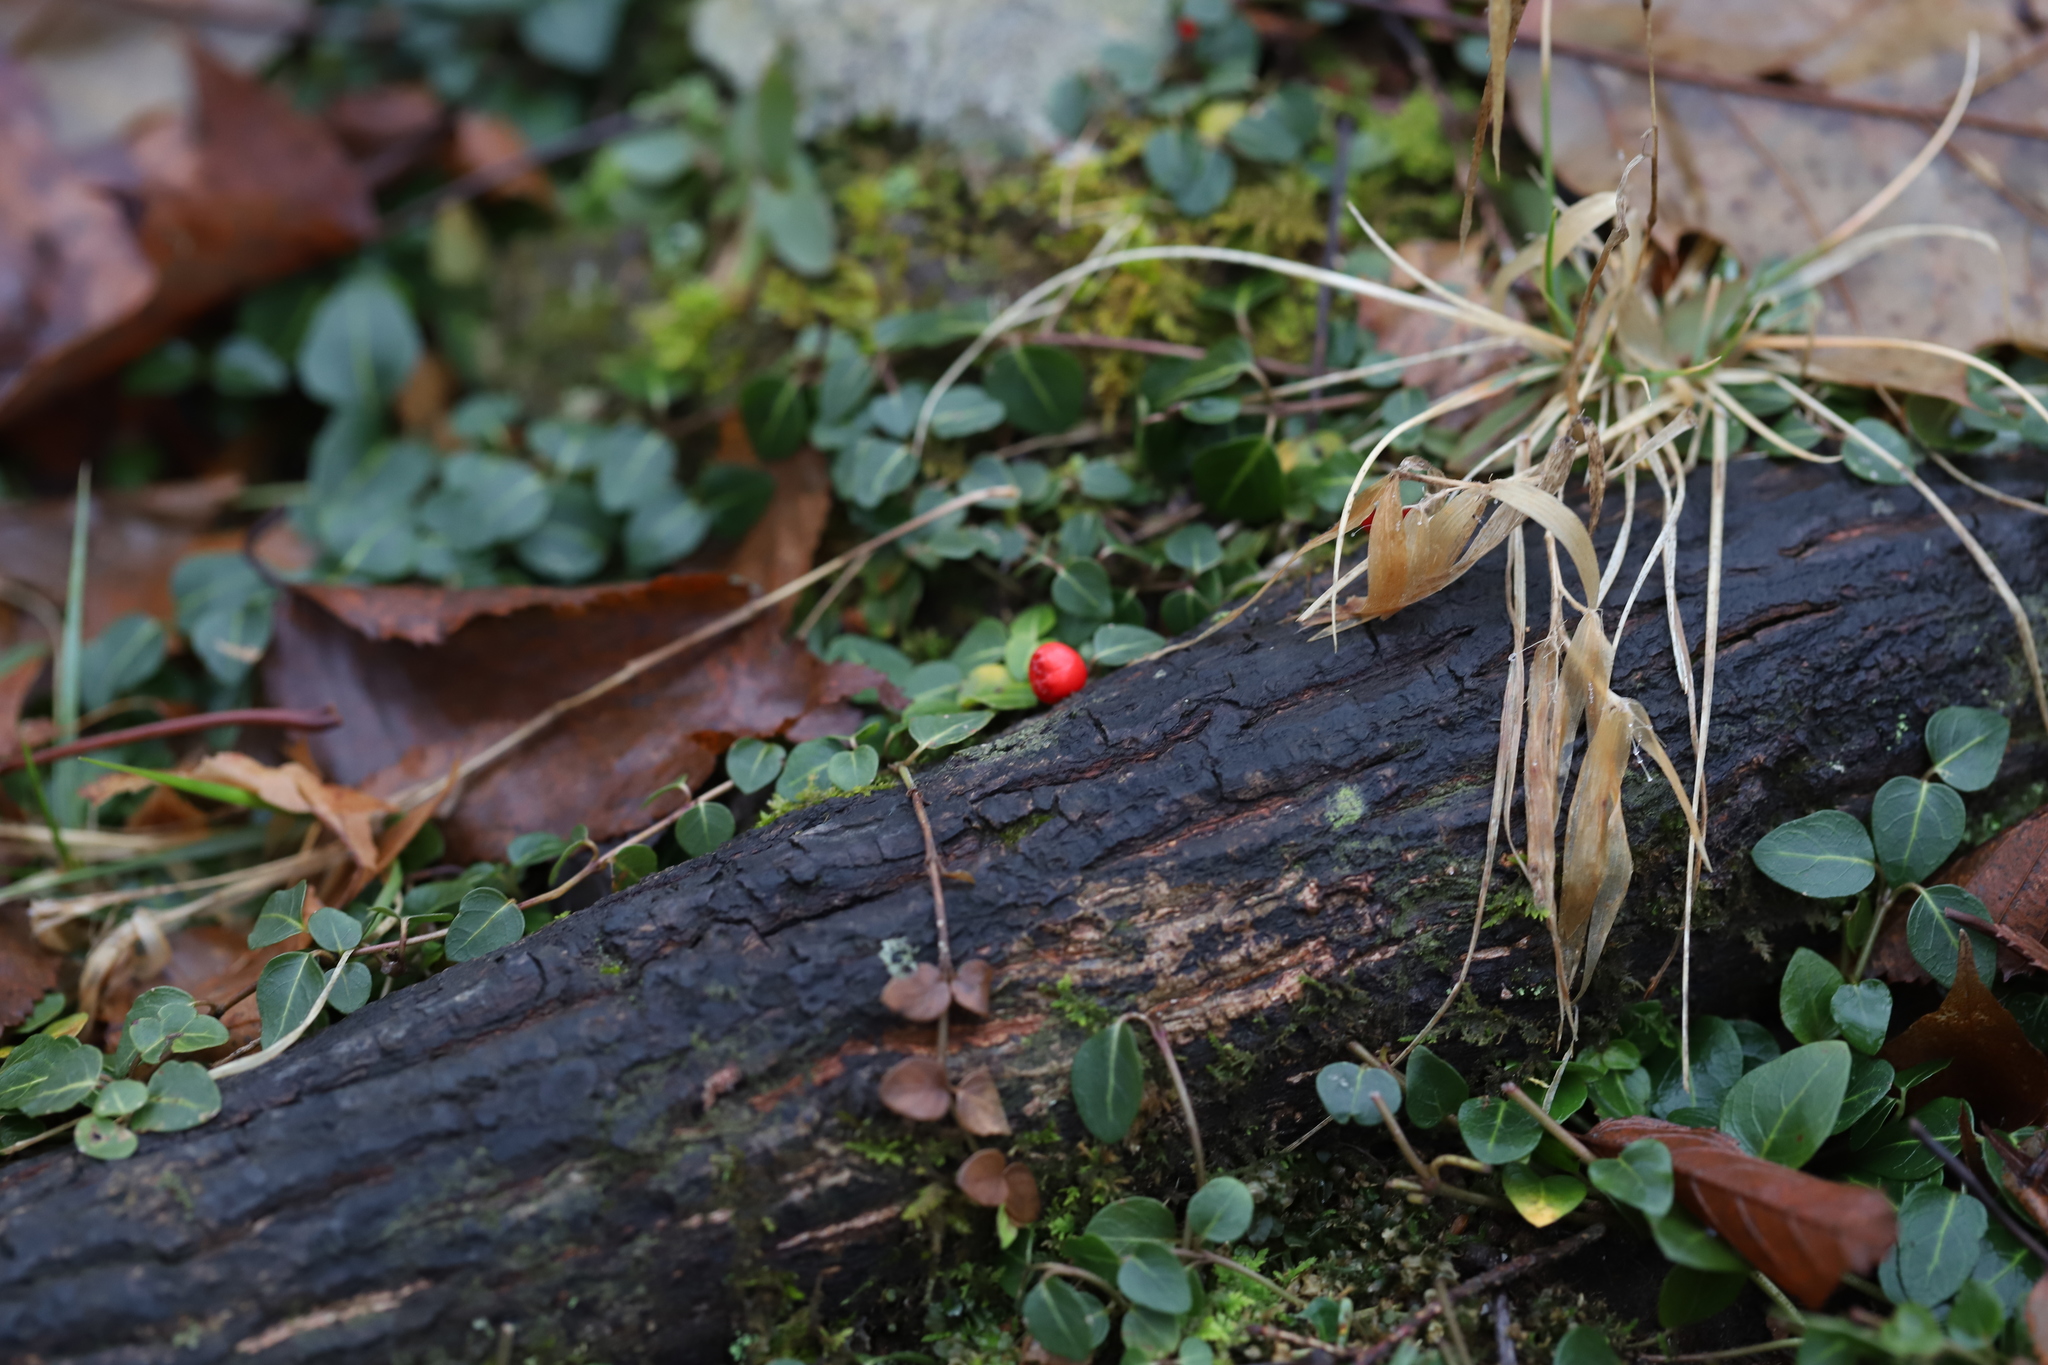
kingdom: Plantae
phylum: Tracheophyta
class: Magnoliopsida
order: Gentianales
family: Rubiaceae
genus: Mitchella
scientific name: Mitchella repens
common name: Partridge-berry
